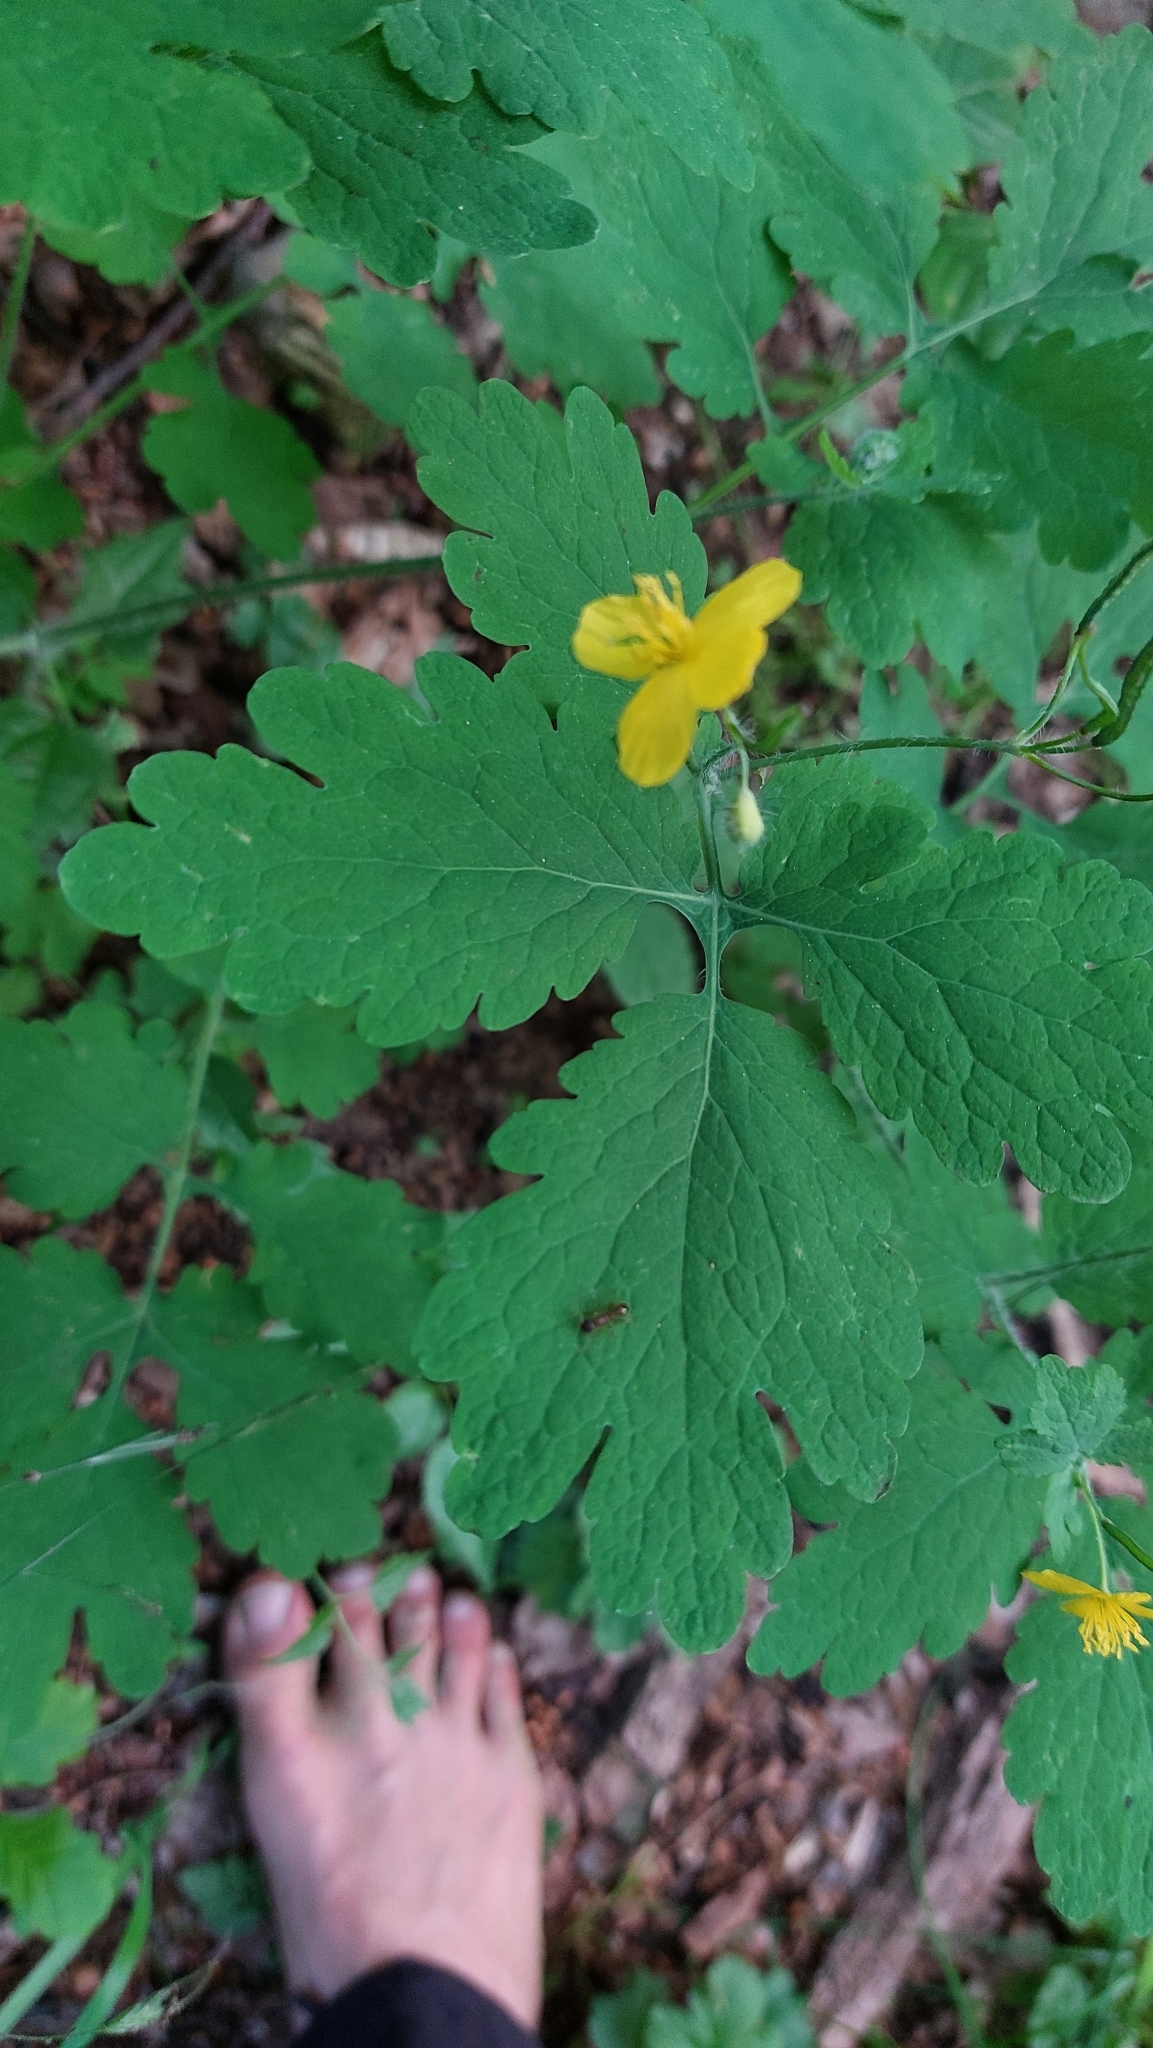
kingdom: Plantae
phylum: Tracheophyta
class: Magnoliopsida
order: Ranunculales
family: Papaveraceae
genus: Chelidonium
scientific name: Chelidonium majus
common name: Greater celandine
